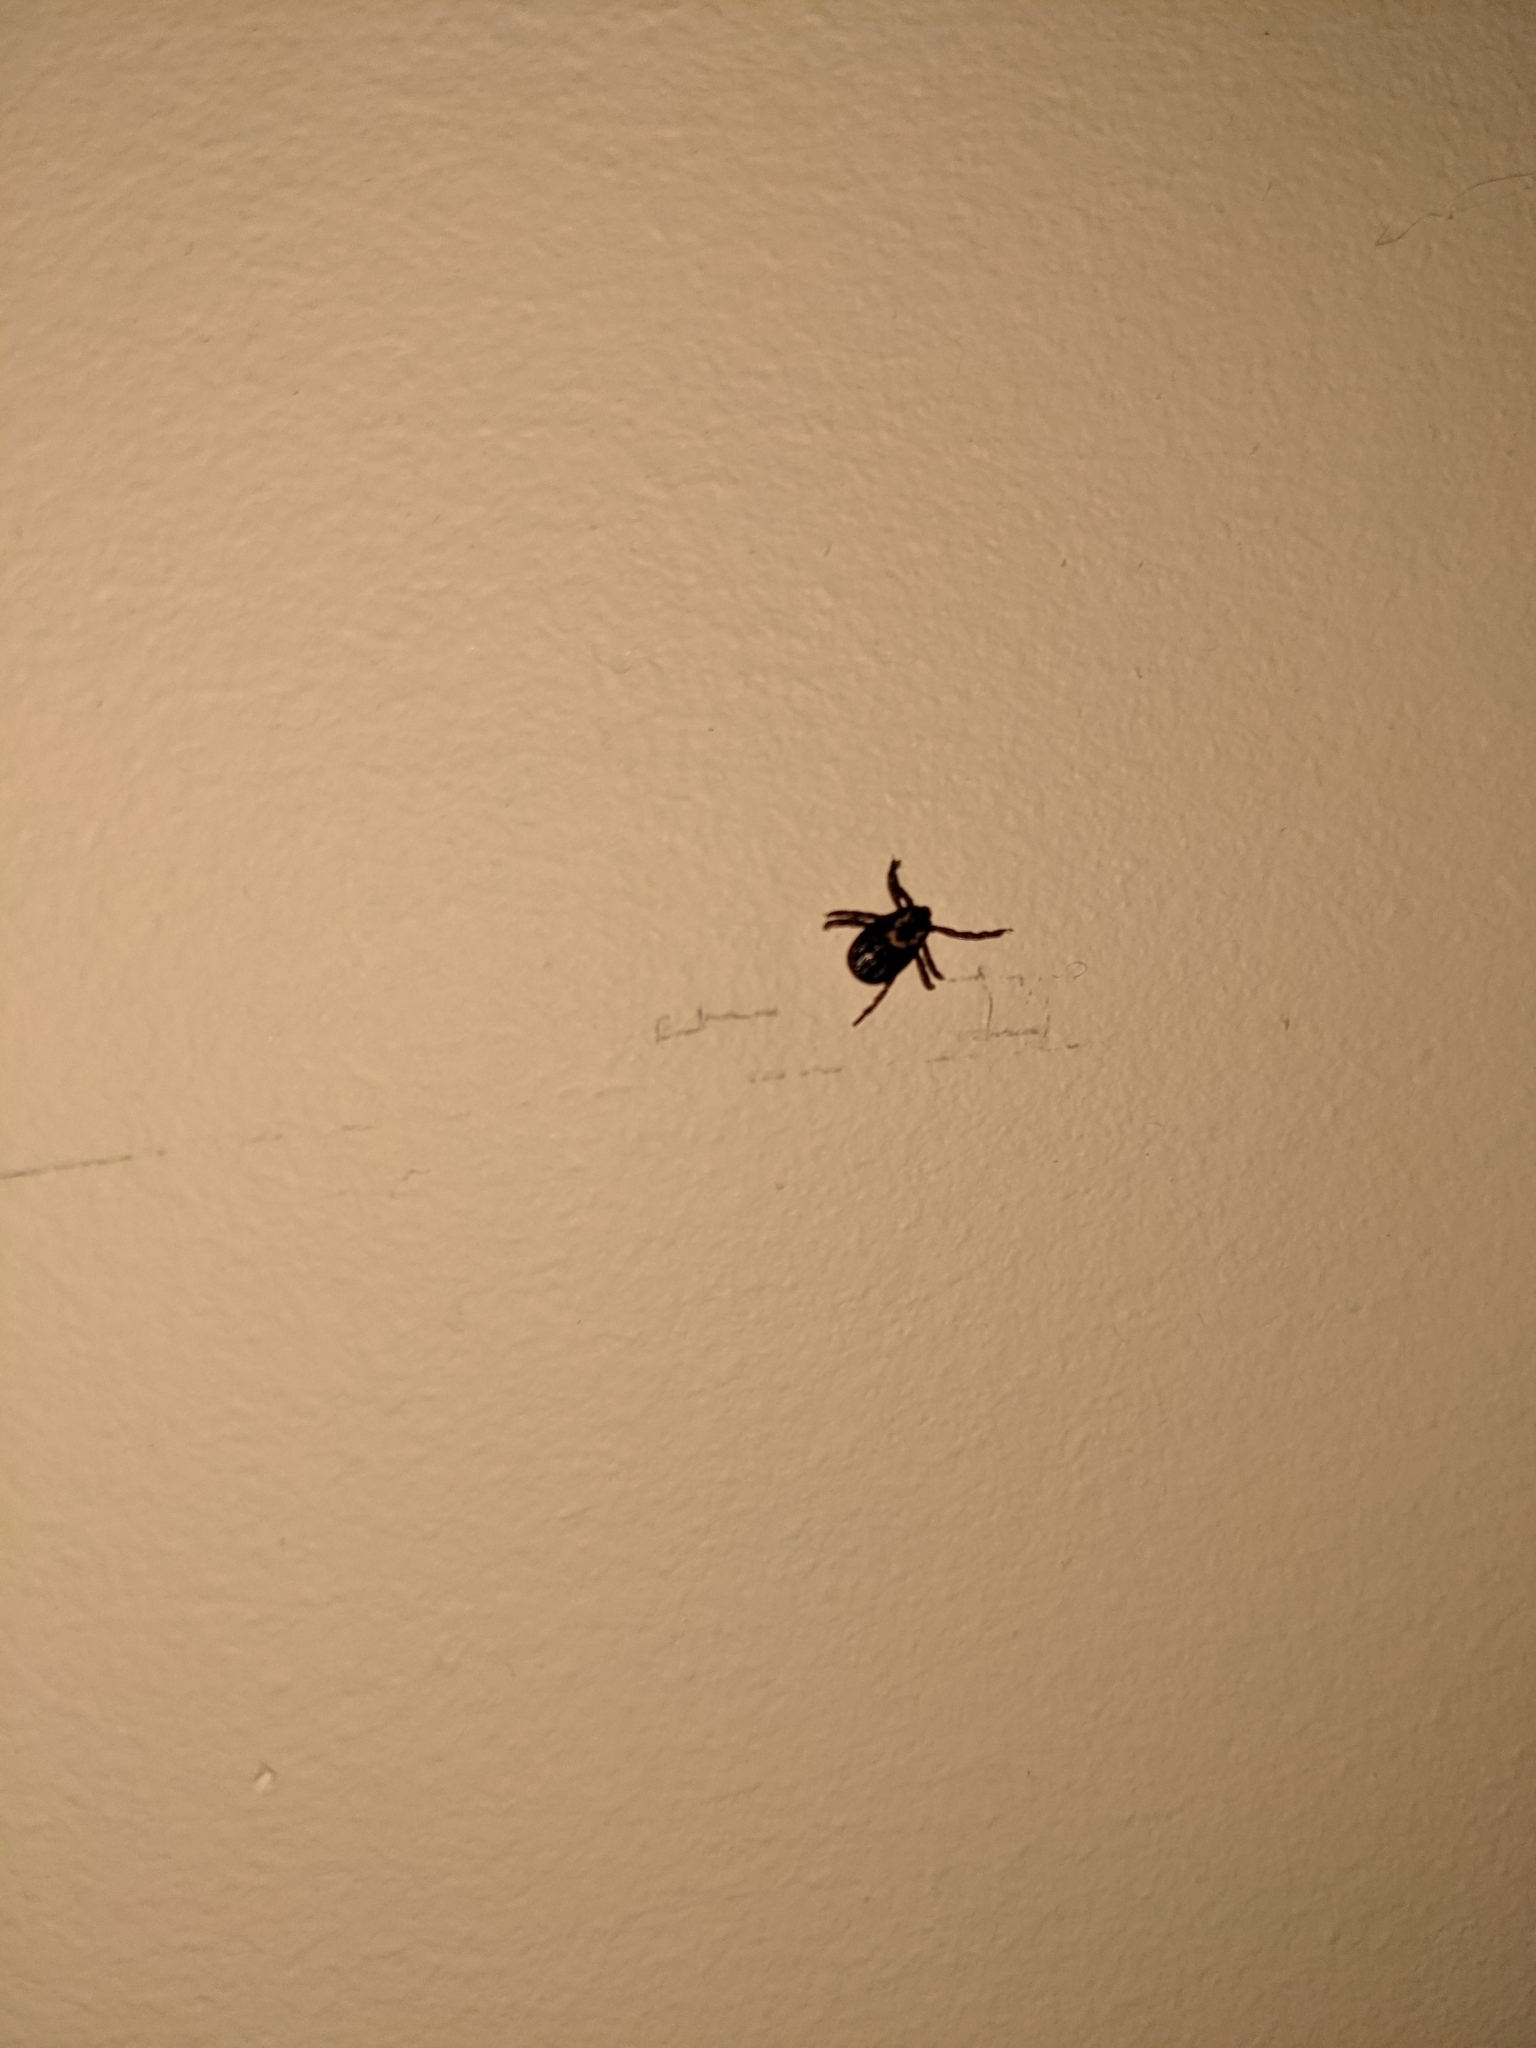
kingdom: Animalia
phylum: Arthropoda
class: Arachnida
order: Ixodida
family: Ixodidae
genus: Dermacentor
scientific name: Dermacentor variabilis
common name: American dog tick
